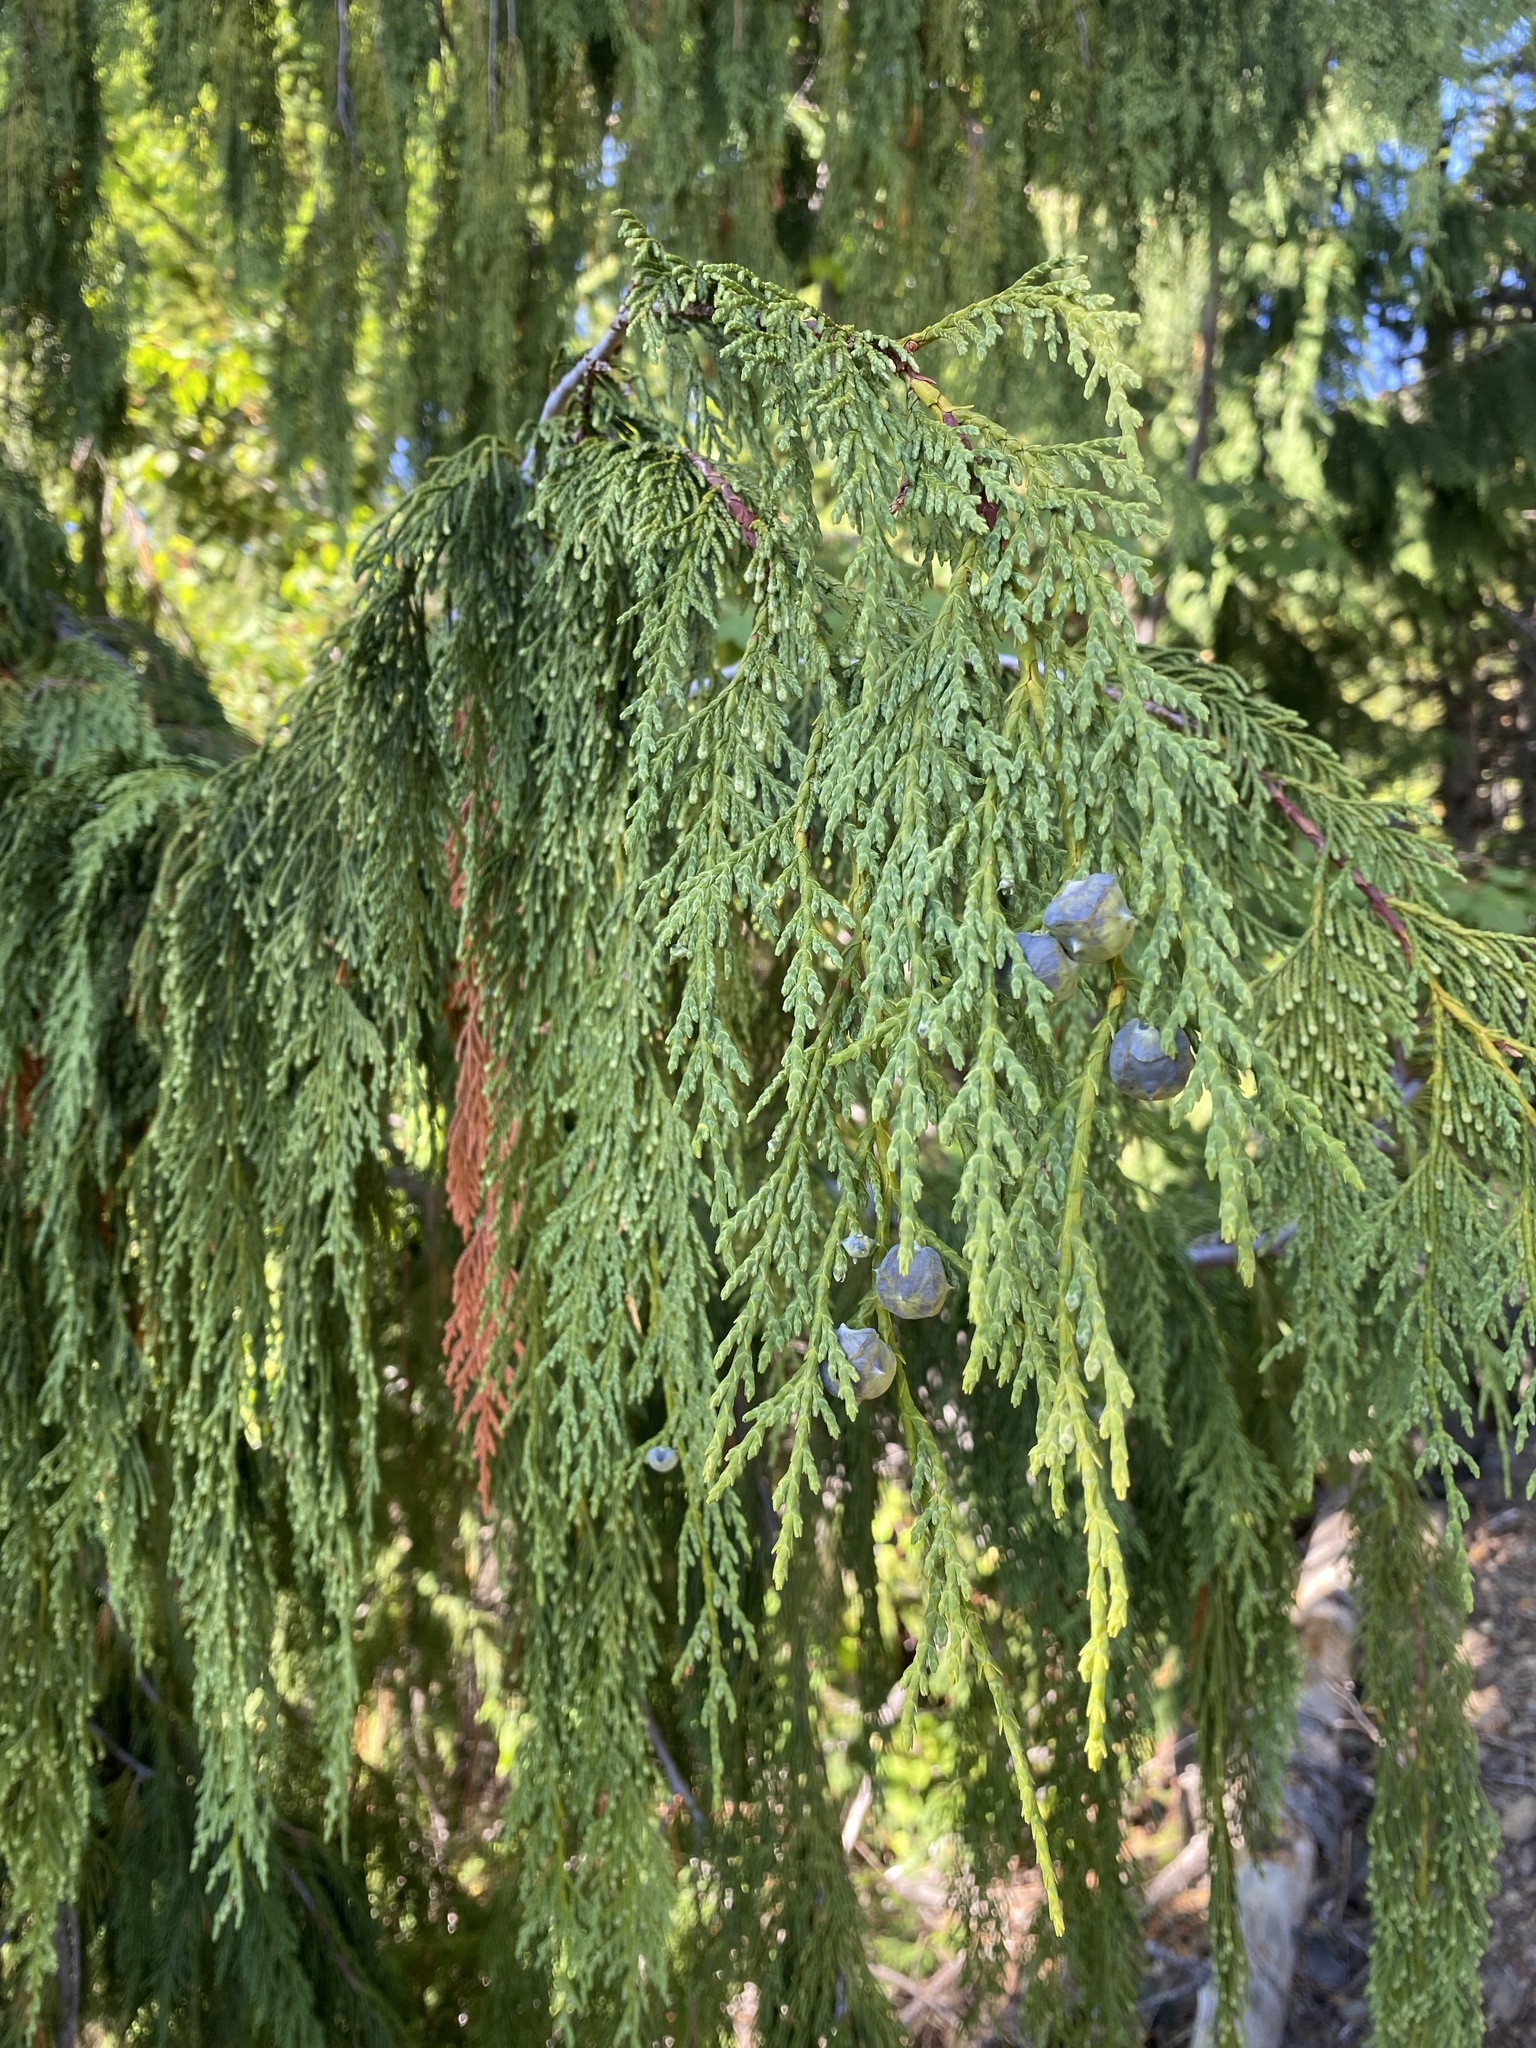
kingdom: Plantae
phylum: Tracheophyta
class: Pinopsida
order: Pinales
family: Cupressaceae
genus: Xanthocyparis
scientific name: Xanthocyparis nootkatensis
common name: Nootka cypress
